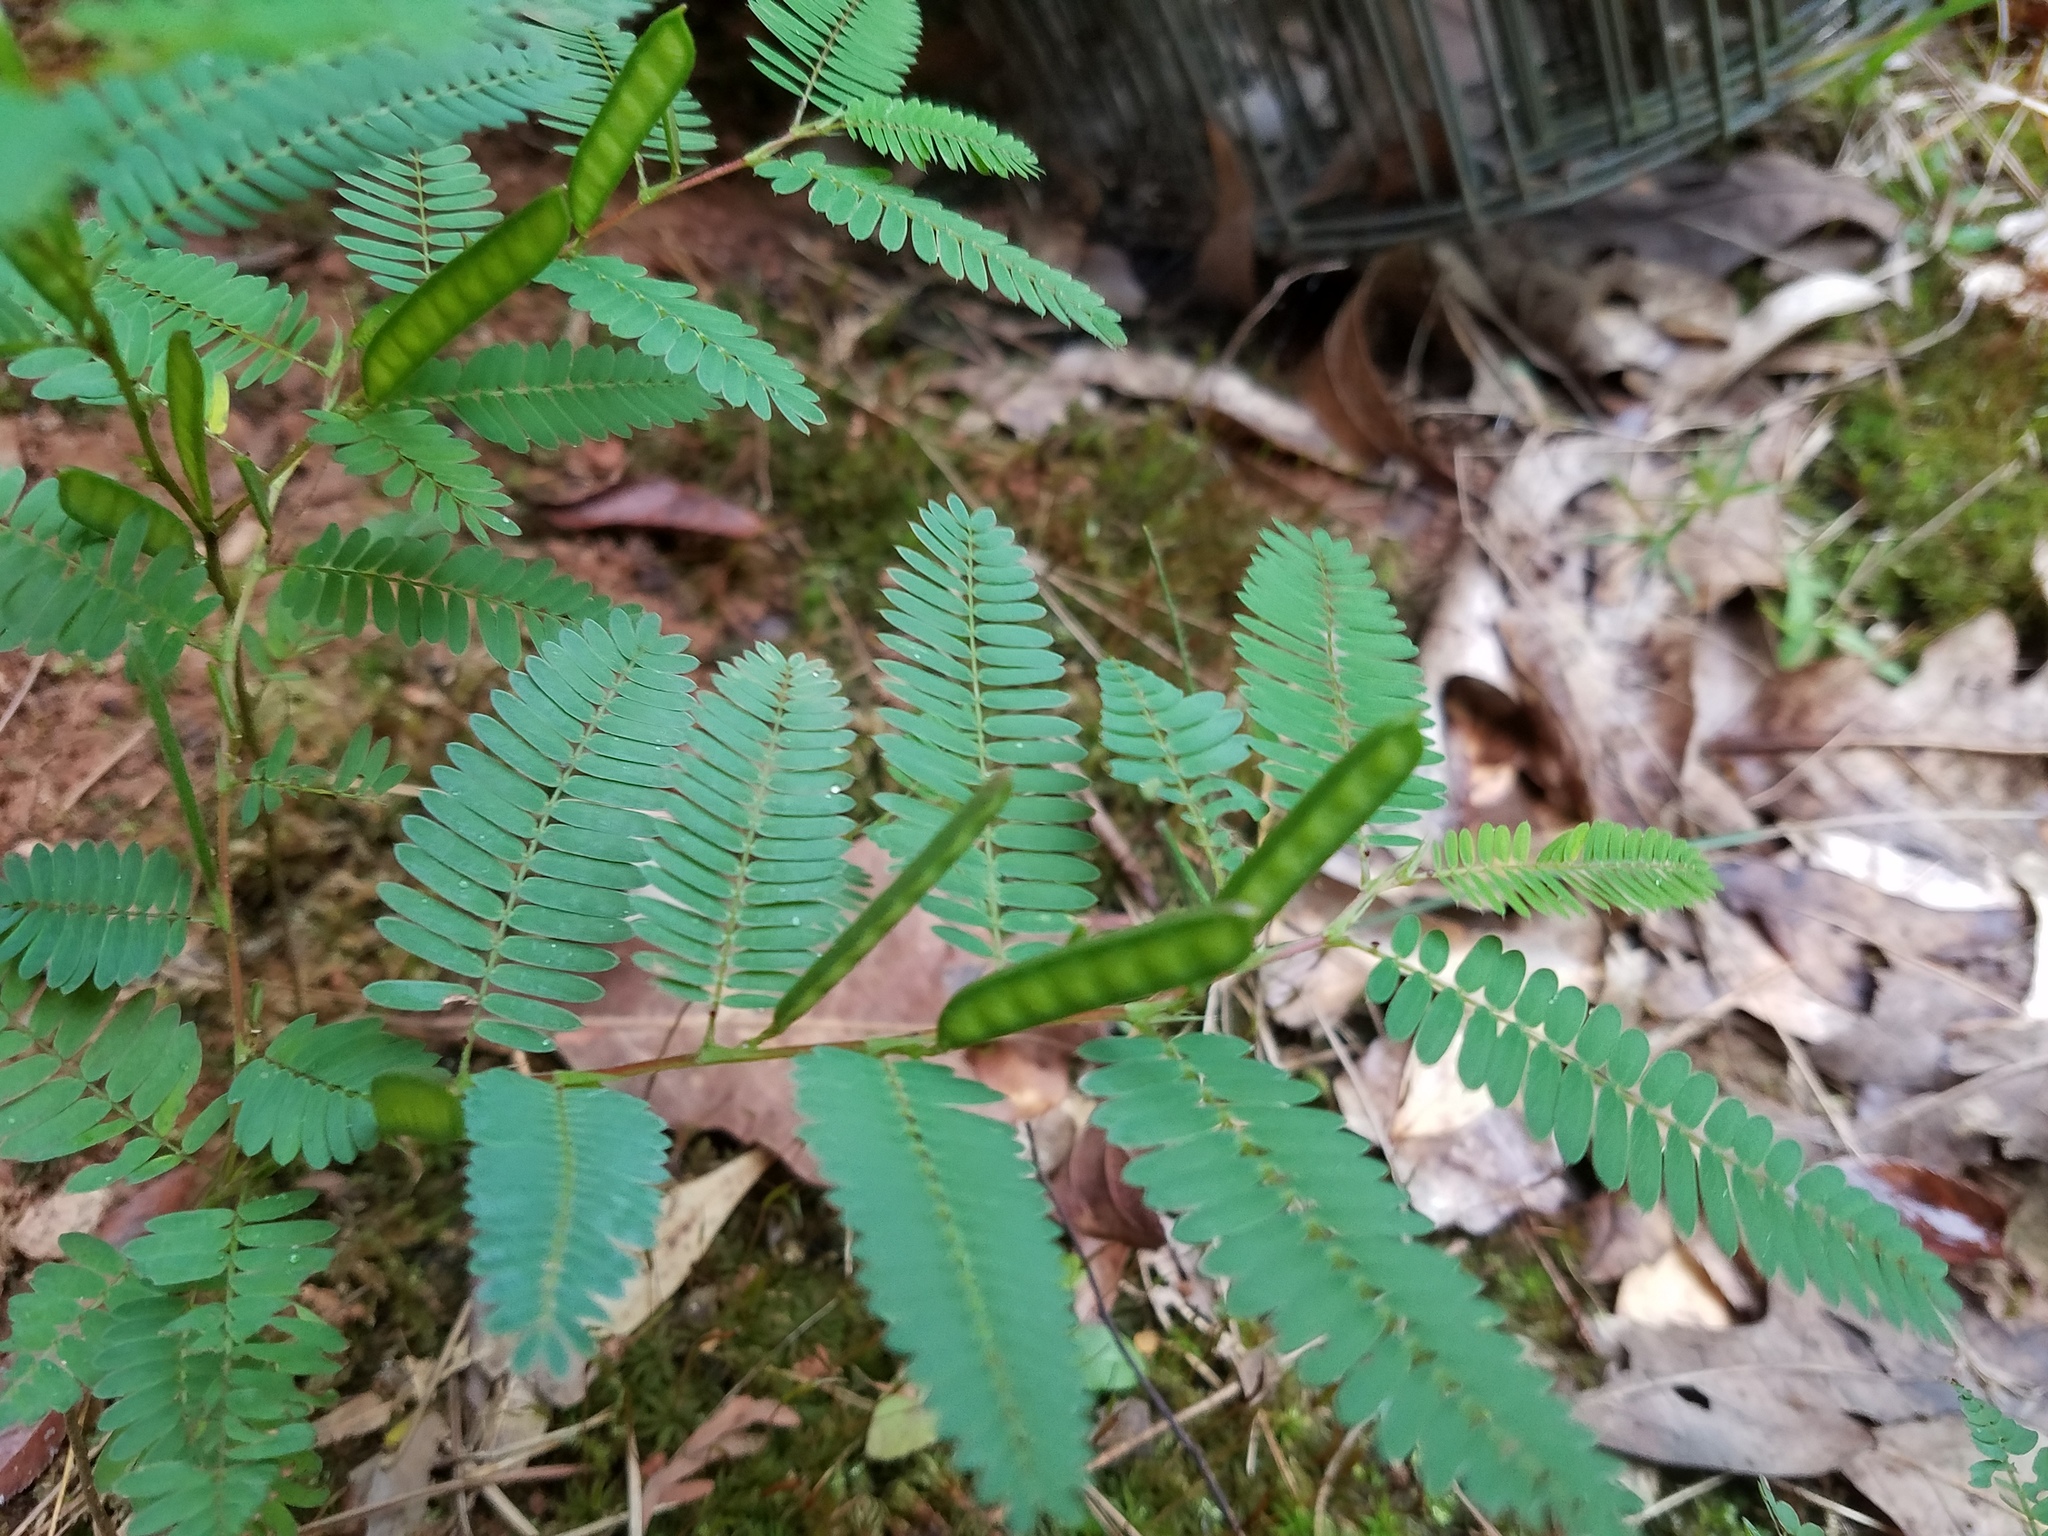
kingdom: Plantae
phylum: Tracheophyta
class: Magnoliopsida
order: Fabales
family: Fabaceae
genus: Chamaecrista
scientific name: Chamaecrista nictitans
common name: Sensitive cassia
